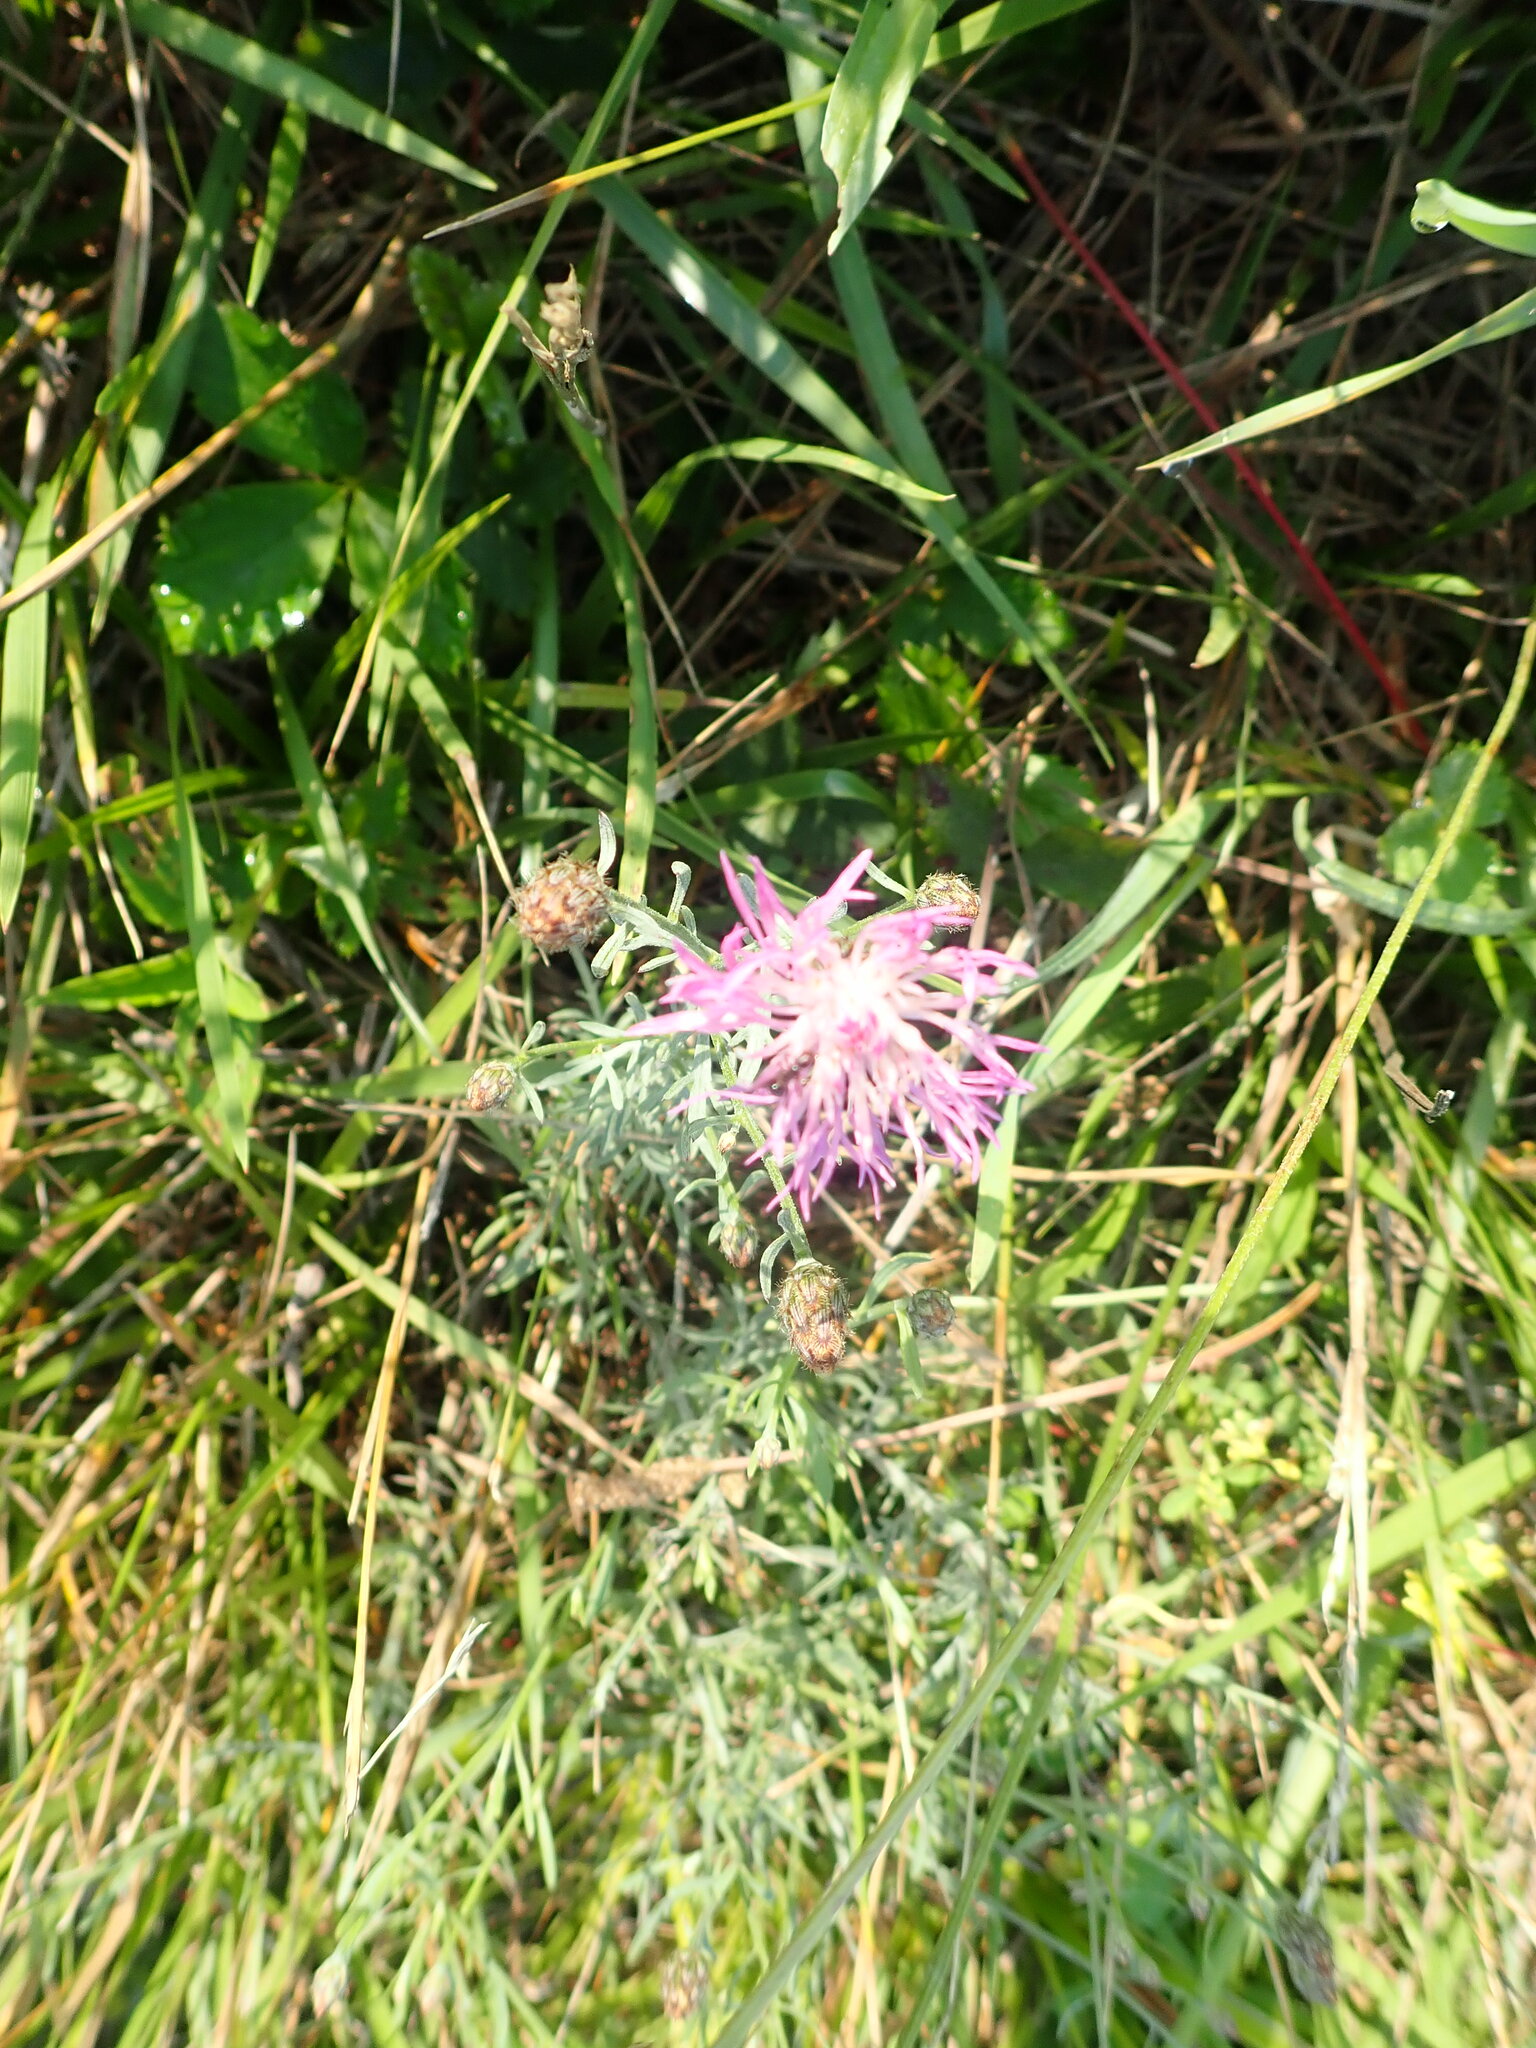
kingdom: Plantae
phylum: Tracheophyta
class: Magnoliopsida
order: Asterales
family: Asteraceae
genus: Centaurea
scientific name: Centaurea stoebe
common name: Spotted knapweed
